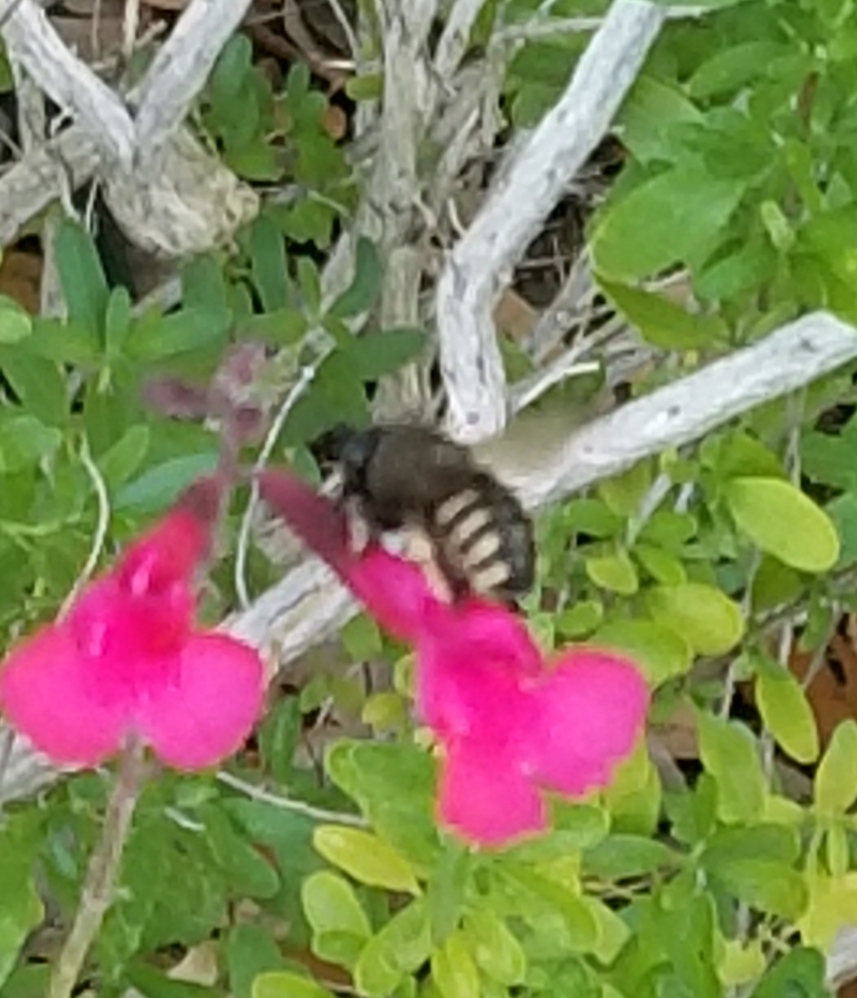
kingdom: Animalia
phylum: Arthropoda
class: Insecta
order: Hymenoptera
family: Apidae
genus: Xylocopa
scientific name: Xylocopa tabaniformis
